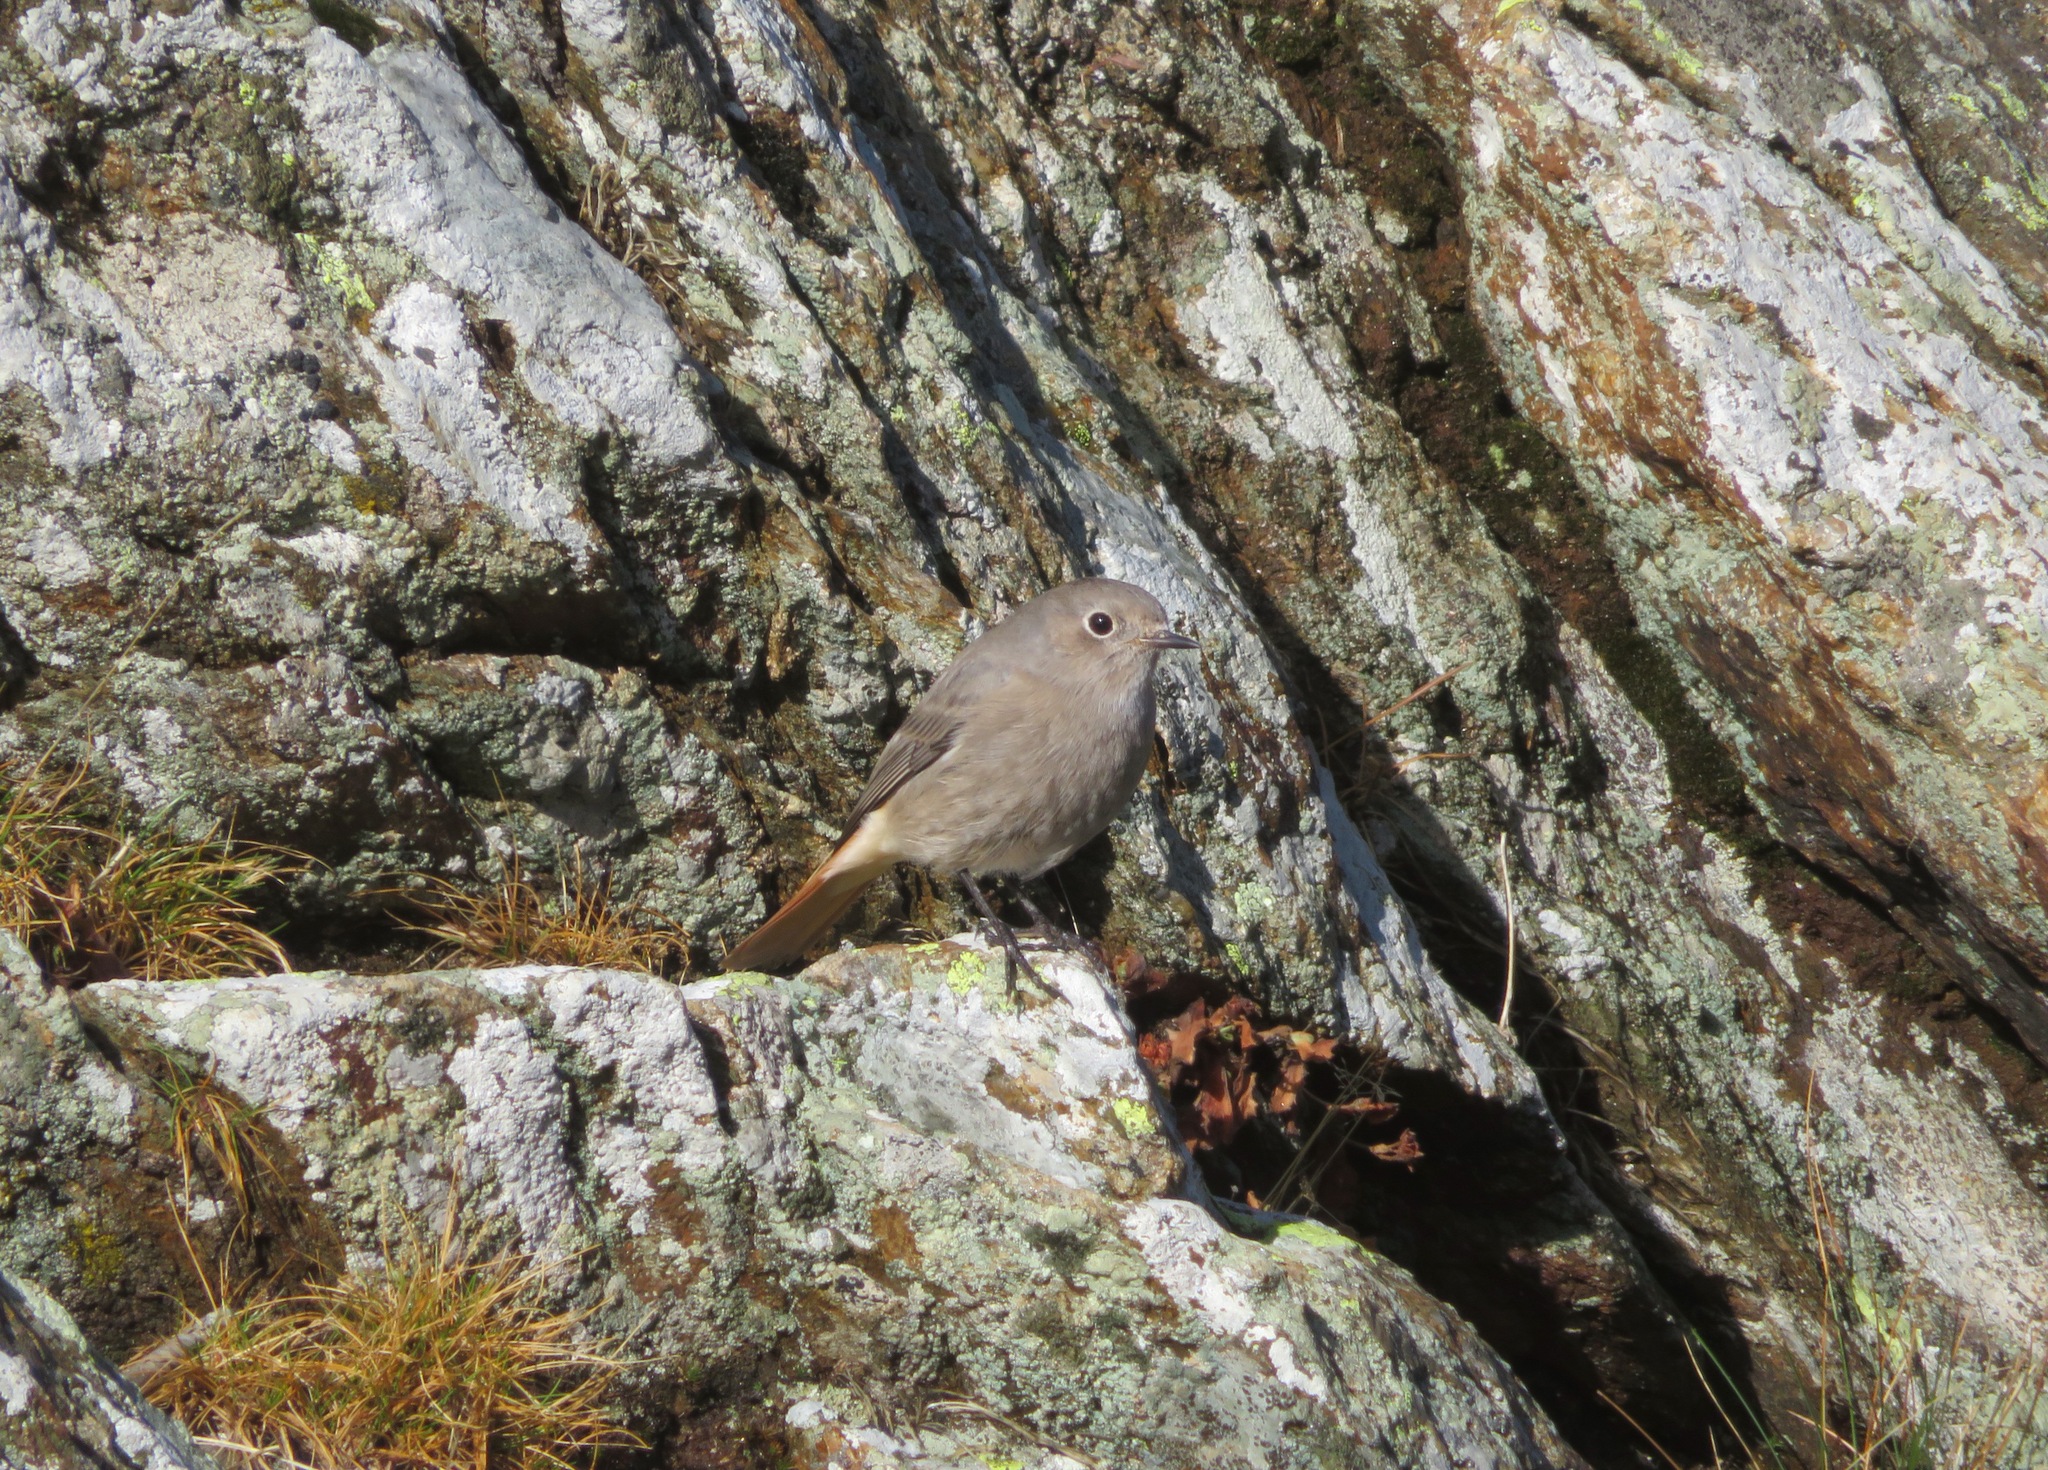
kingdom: Animalia
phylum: Chordata
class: Aves
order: Passeriformes
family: Muscicapidae
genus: Phoenicurus
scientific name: Phoenicurus ochruros
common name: Black redstart
